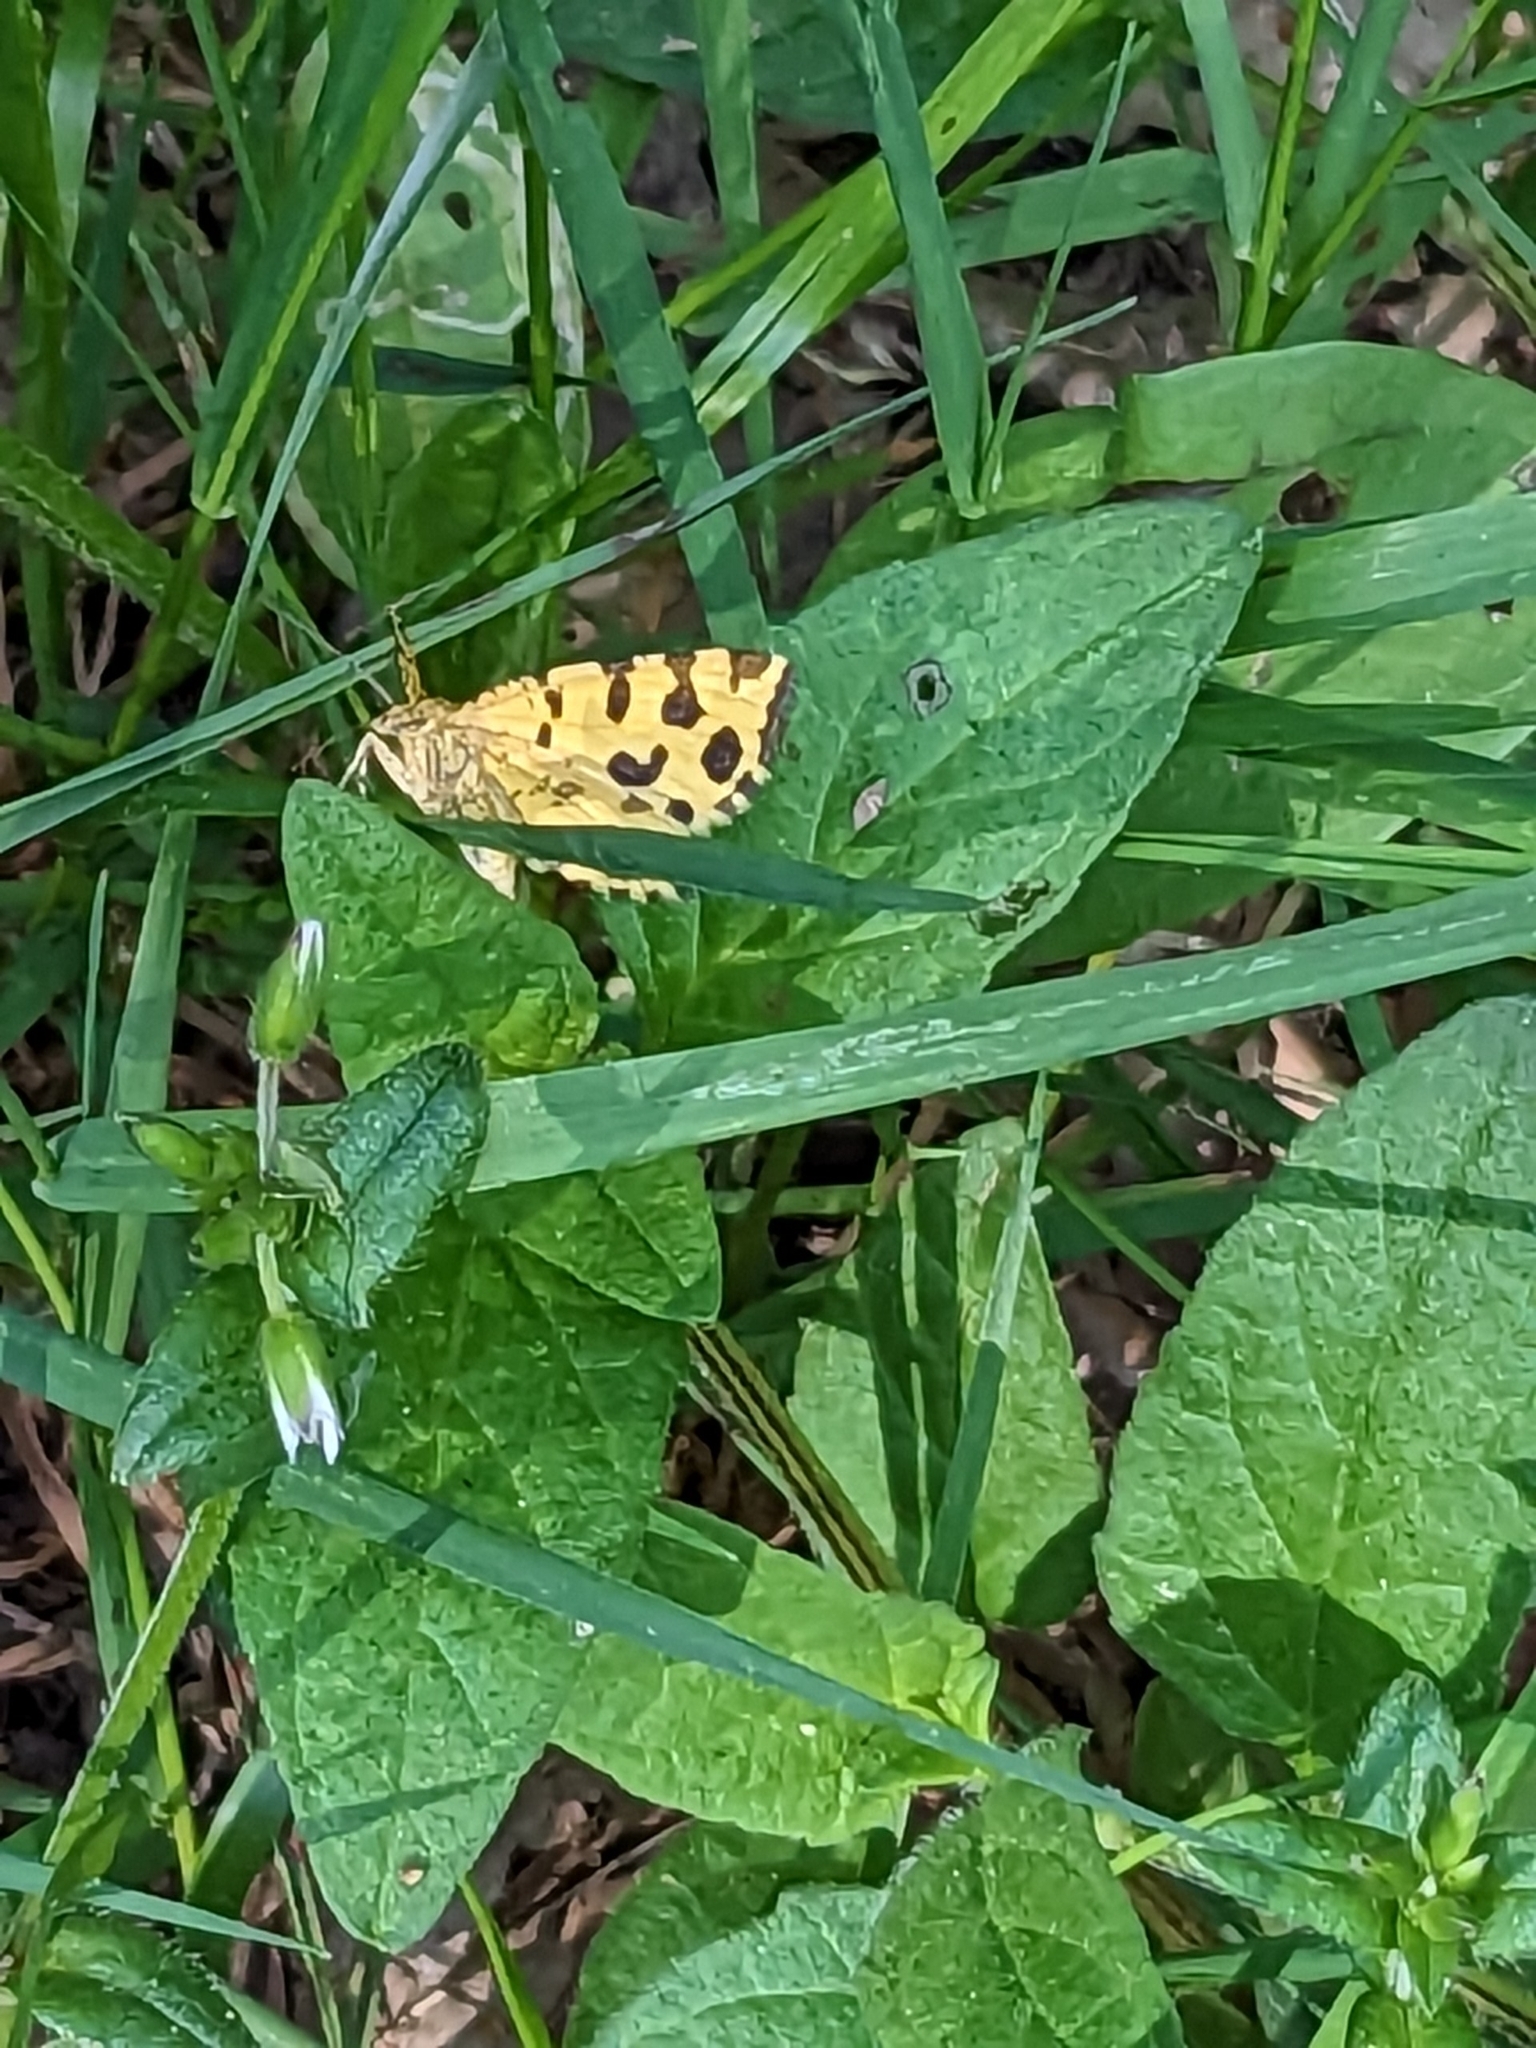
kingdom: Animalia
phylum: Arthropoda
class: Insecta
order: Lepidoptera
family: Geometridae
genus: Pseudopanthera
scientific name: Pseudopanthera macularia
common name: Speckled yellow
